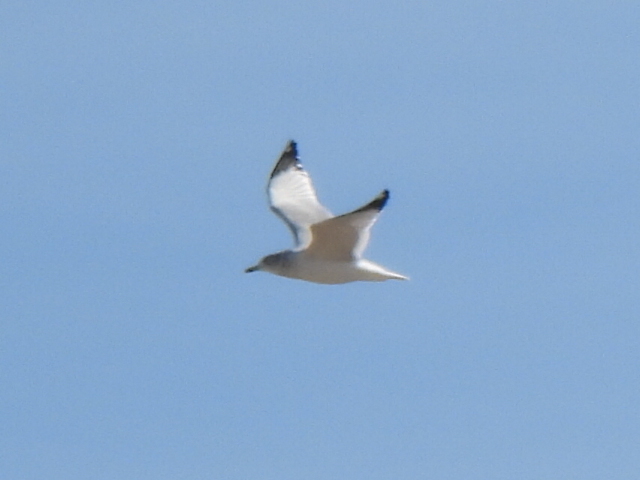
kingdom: Animalia
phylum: Chordata
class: Aves
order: Charadriiformes
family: Laridae
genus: Larus
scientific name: Larus delawarensis
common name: Ring-billed gull
